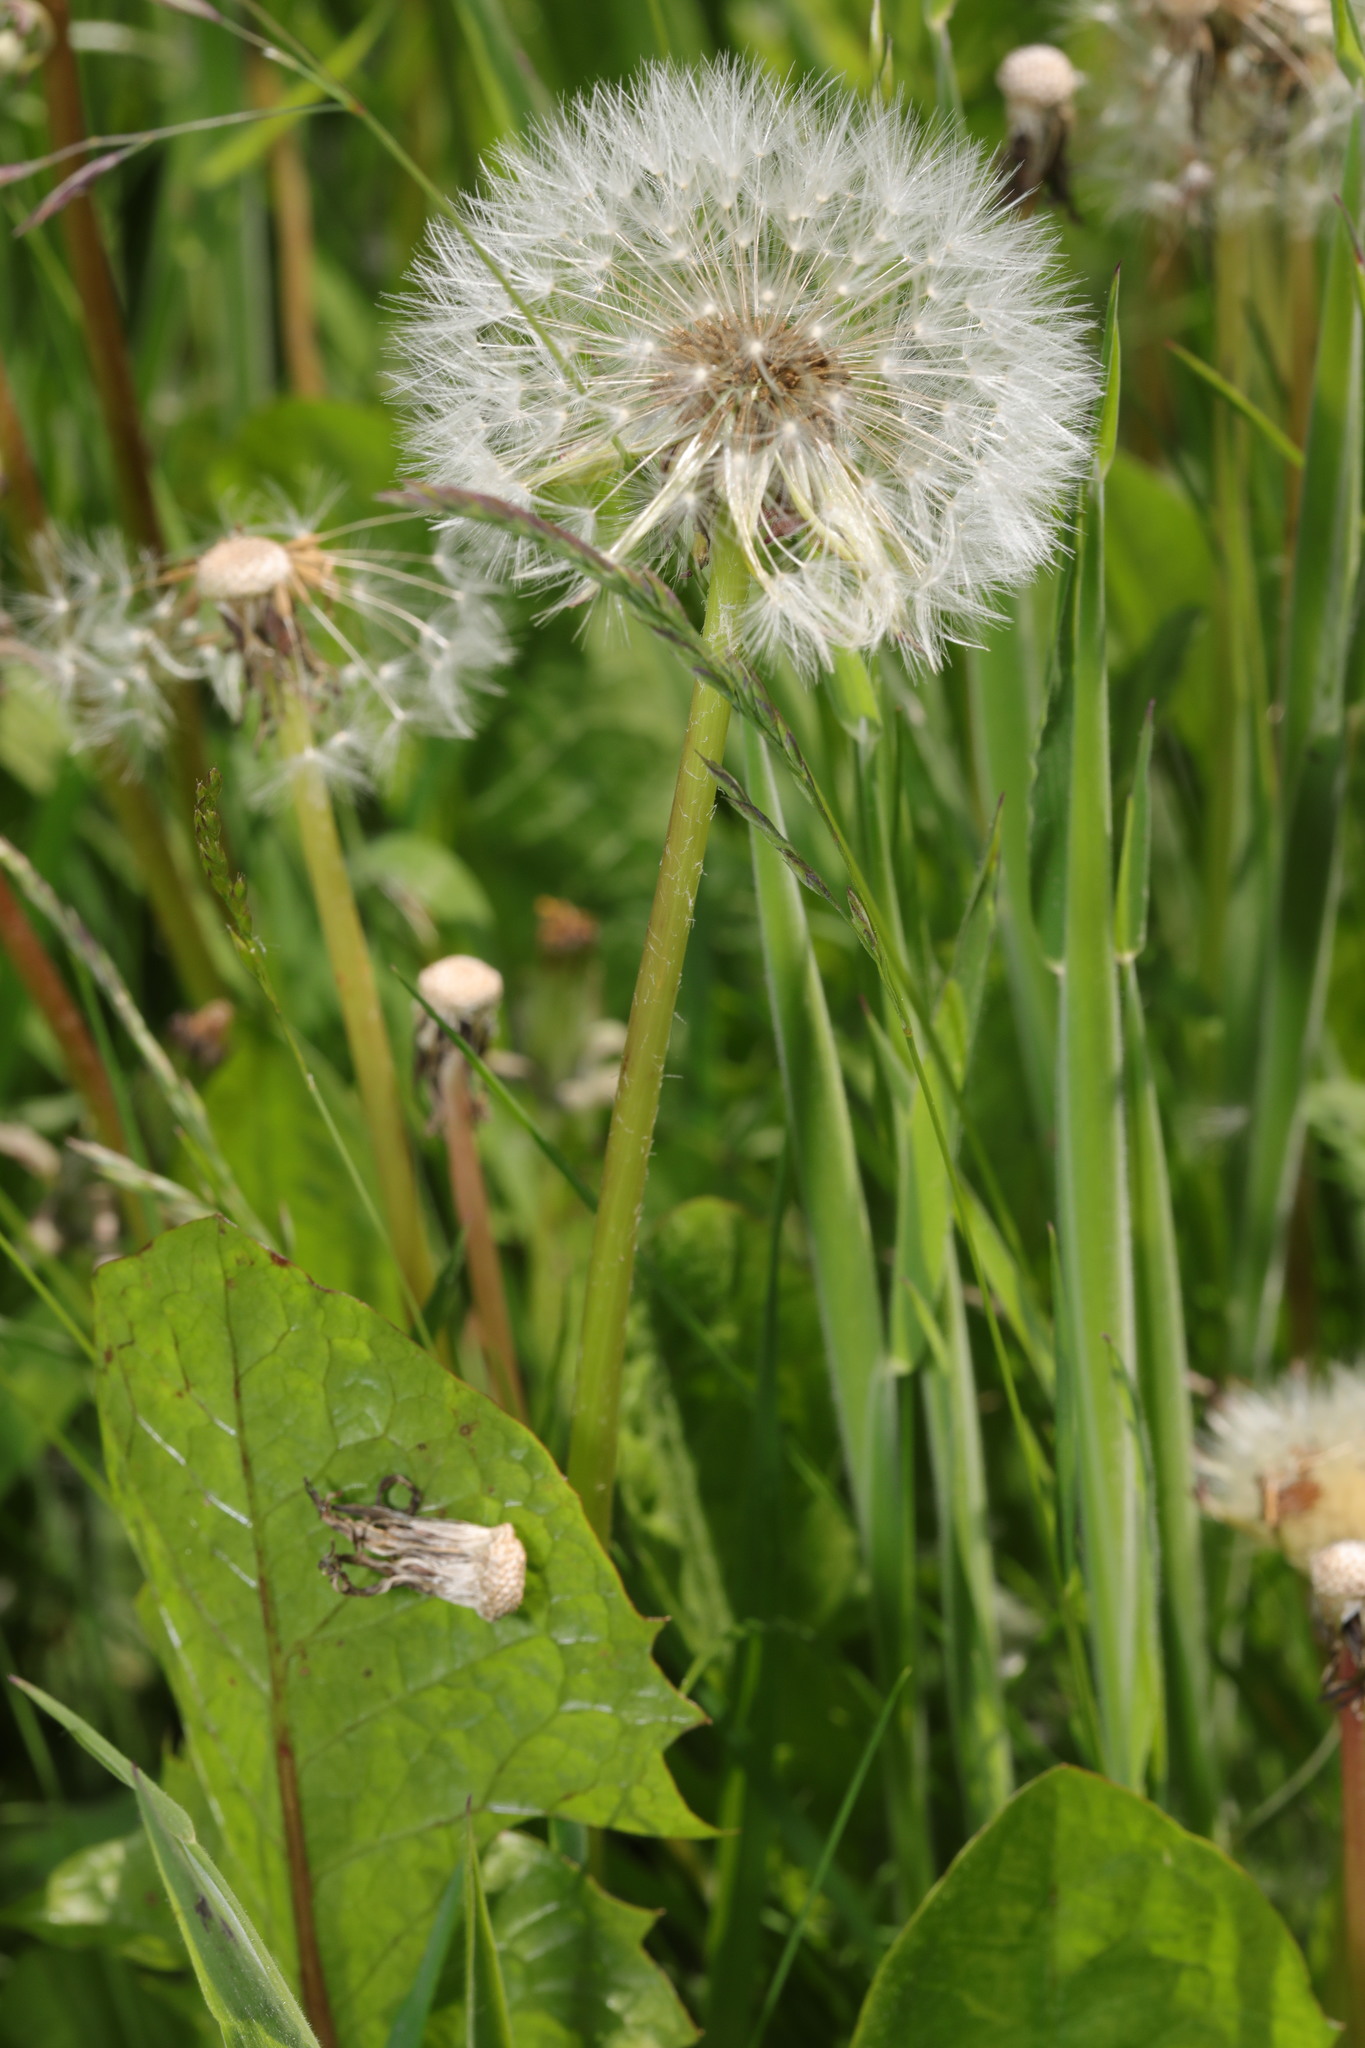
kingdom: Plantae
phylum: Tracheophyta
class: Magnoliopsida
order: Asterales
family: Asteraceae
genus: Taraxacum
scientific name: Taraxacum officinale
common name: Common dandelion
